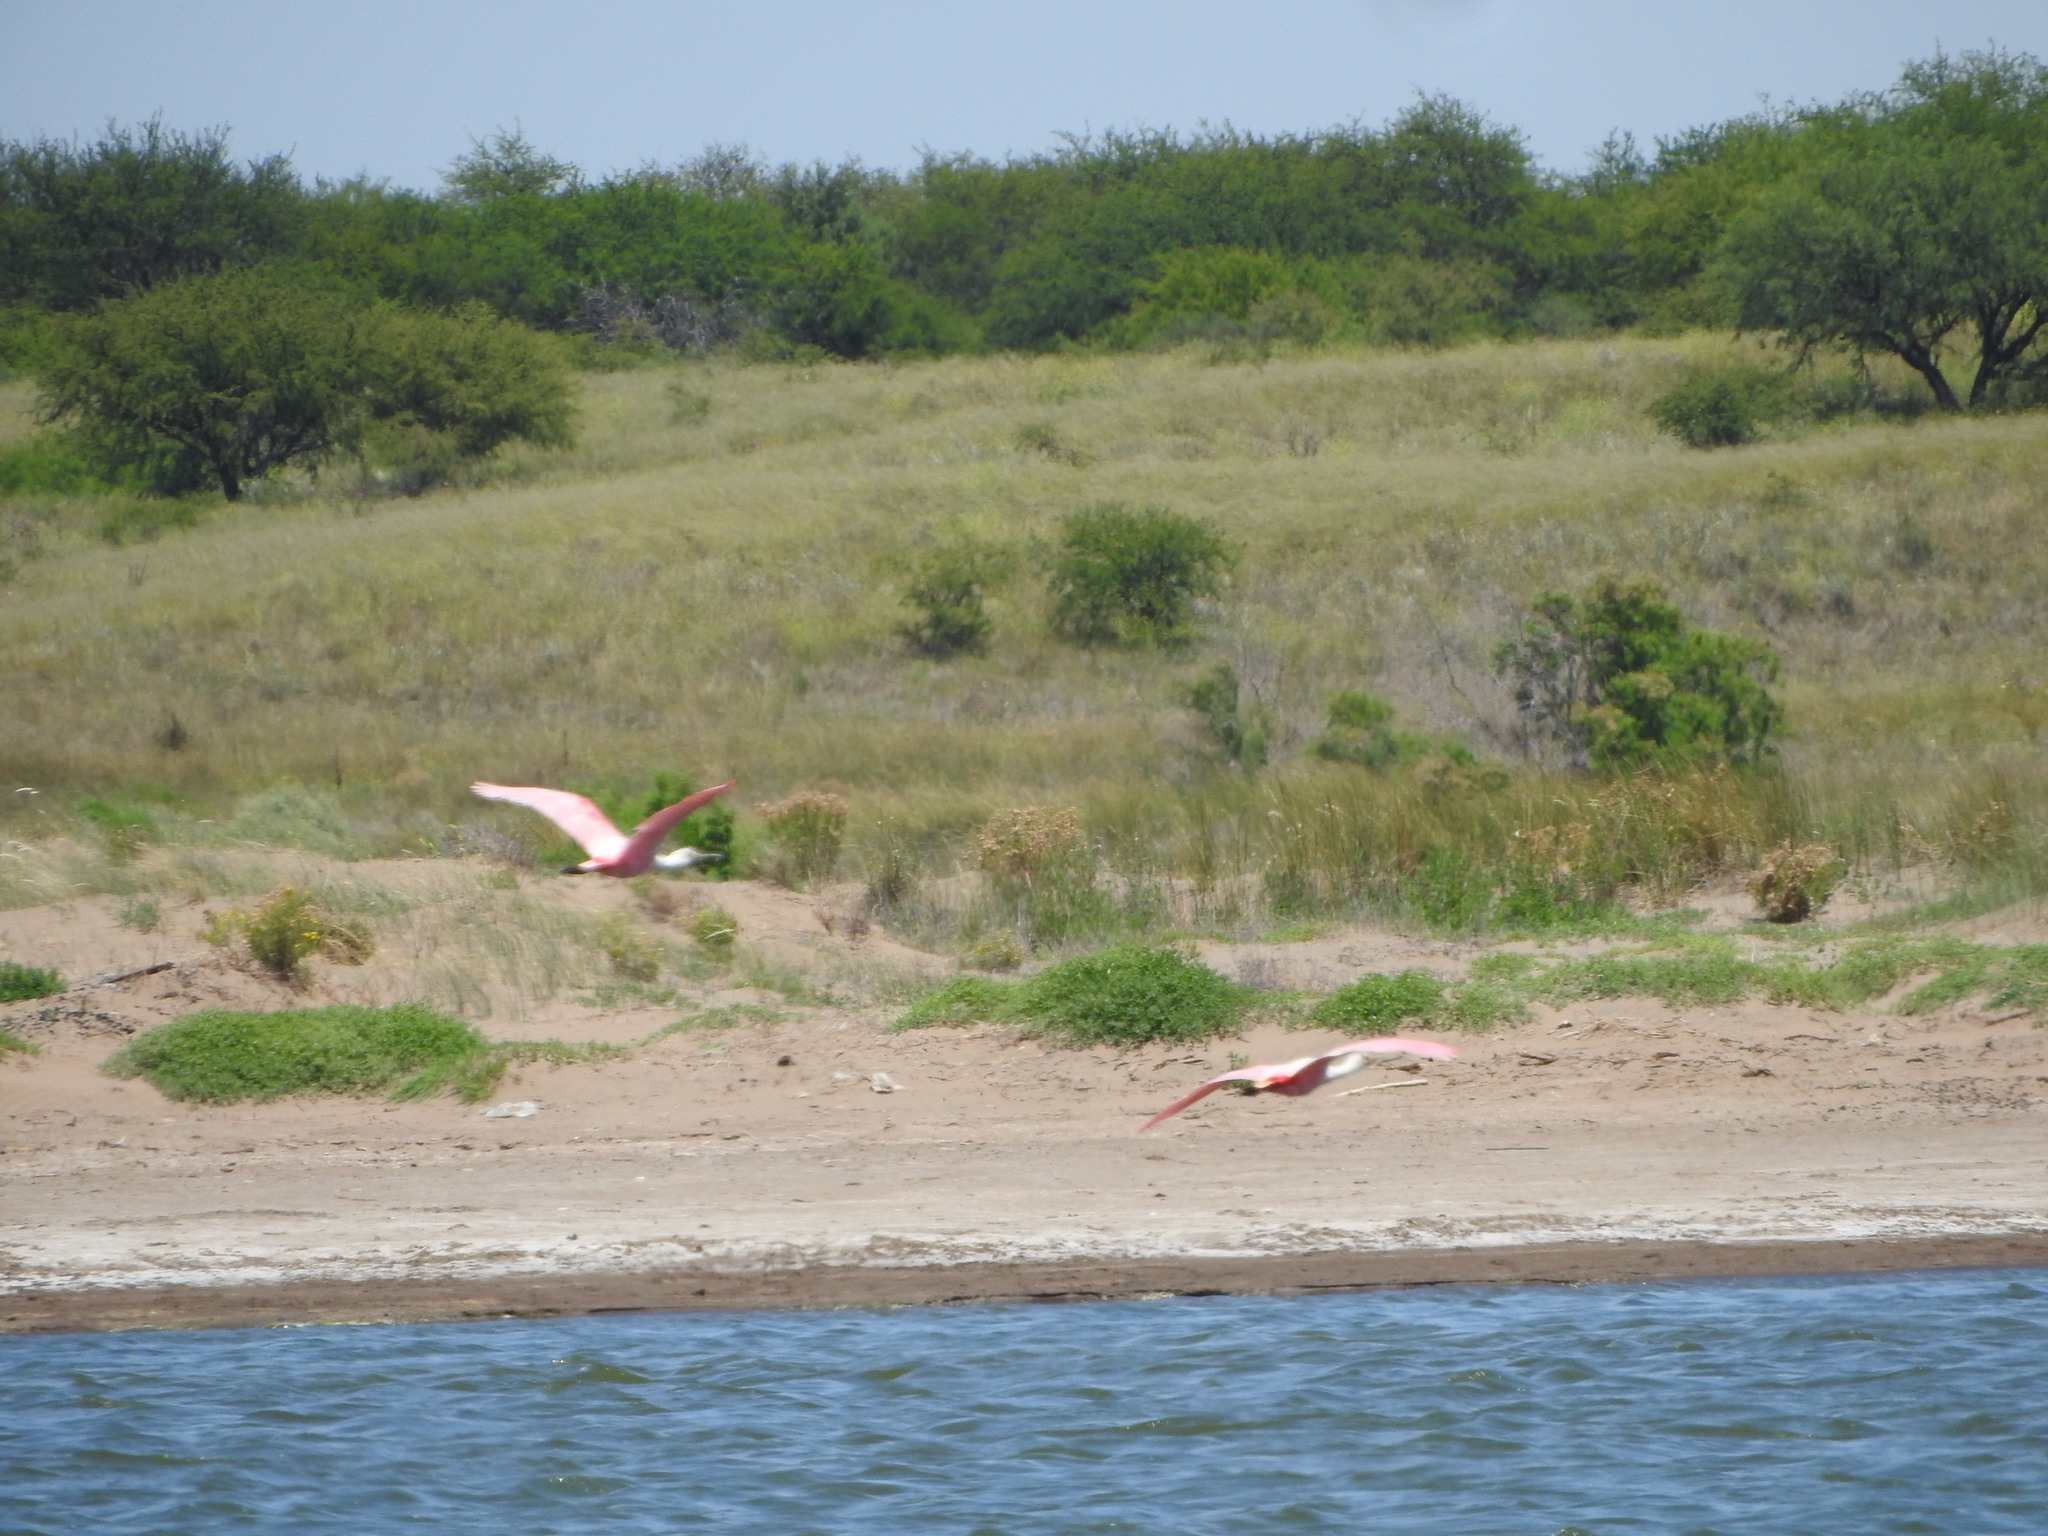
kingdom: Animalia
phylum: Chordata
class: Aves
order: Pelecaniformes
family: Threskiornithidae
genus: Platalea
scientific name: Platalea ajaja
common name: Roseate spoonbill
